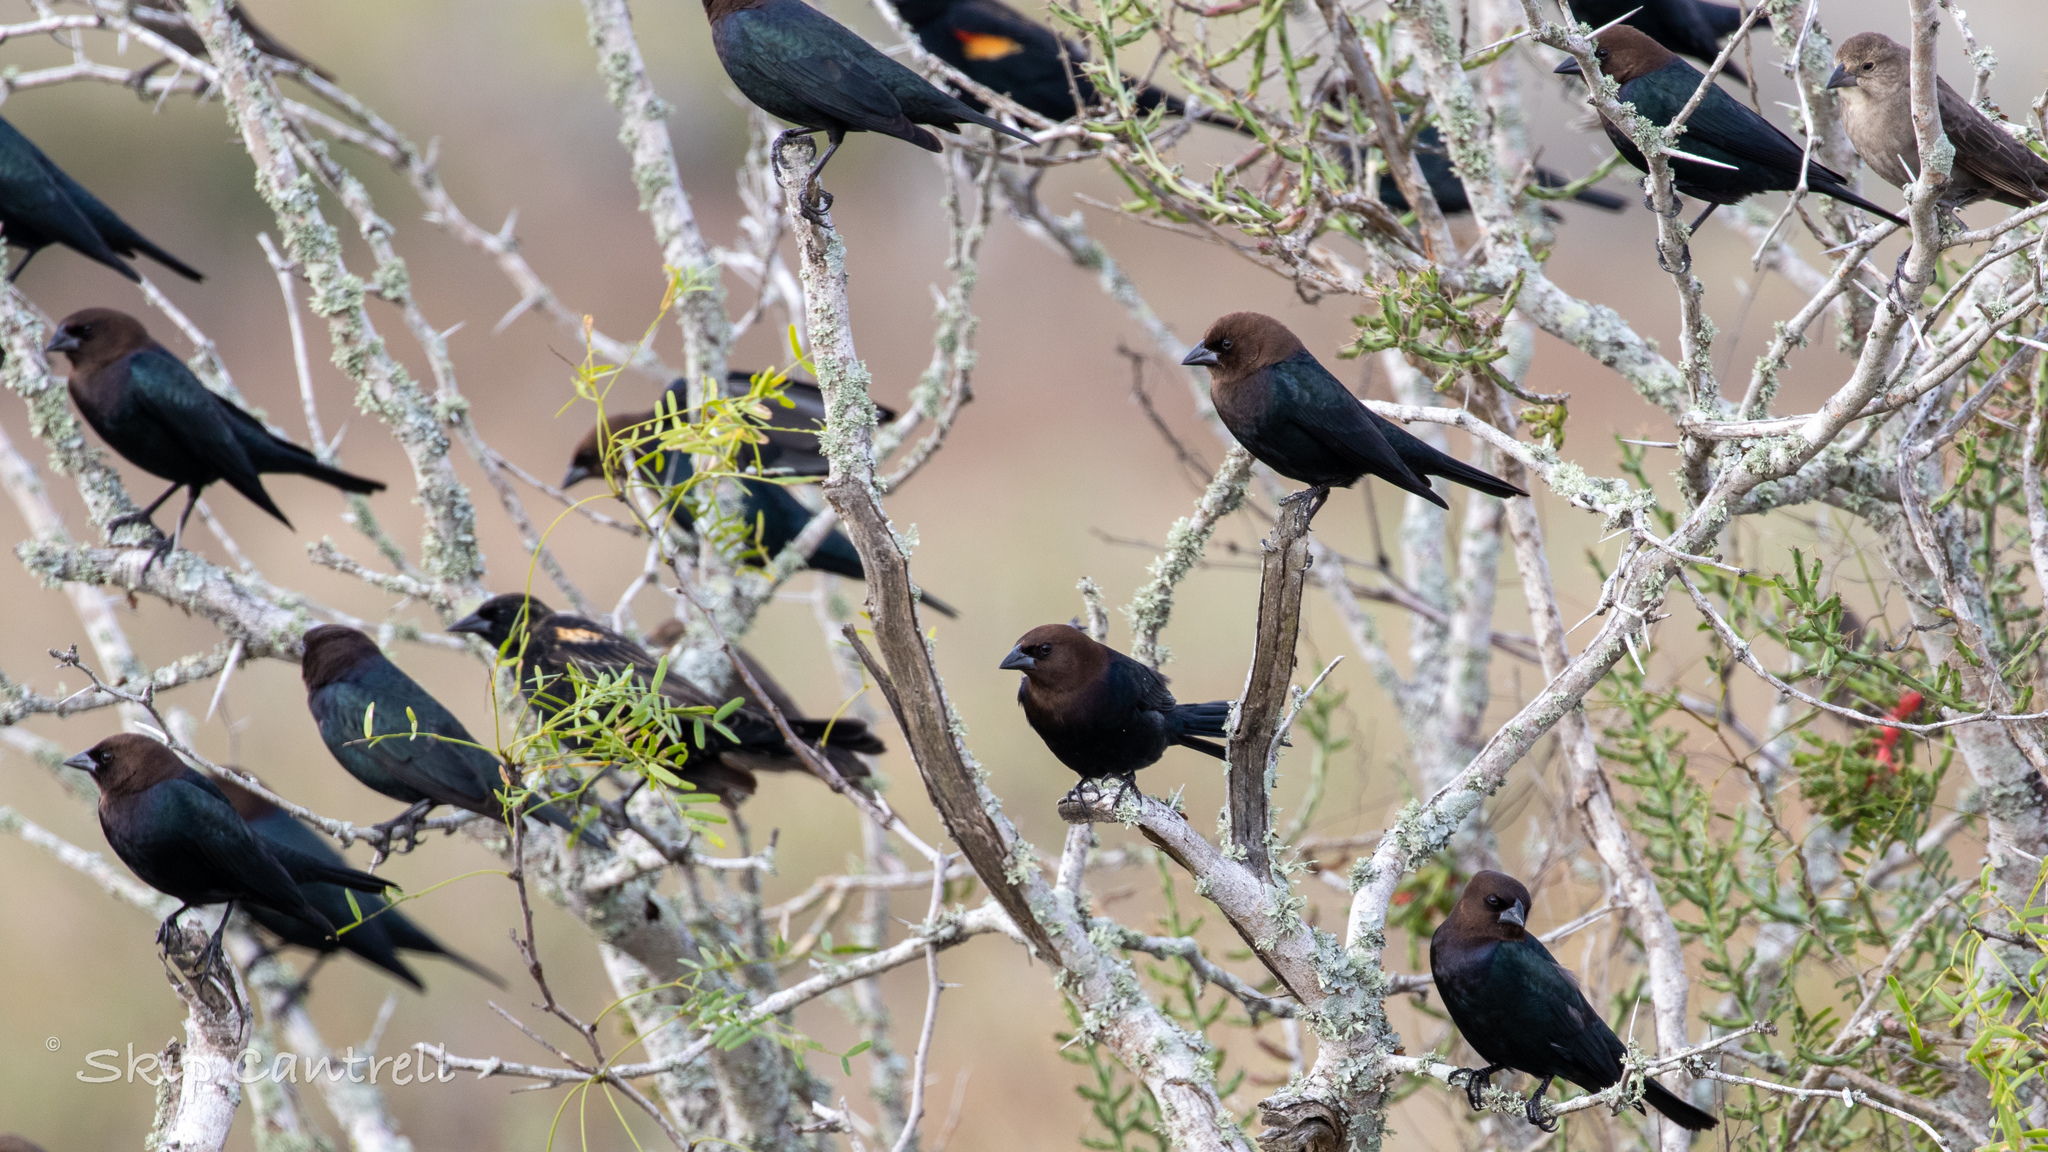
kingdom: Animalia
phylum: Chordata
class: Aves
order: Passeriformes
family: Icteridae
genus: Molothrus
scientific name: Molothrus ater
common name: Brown-headed cowbird
